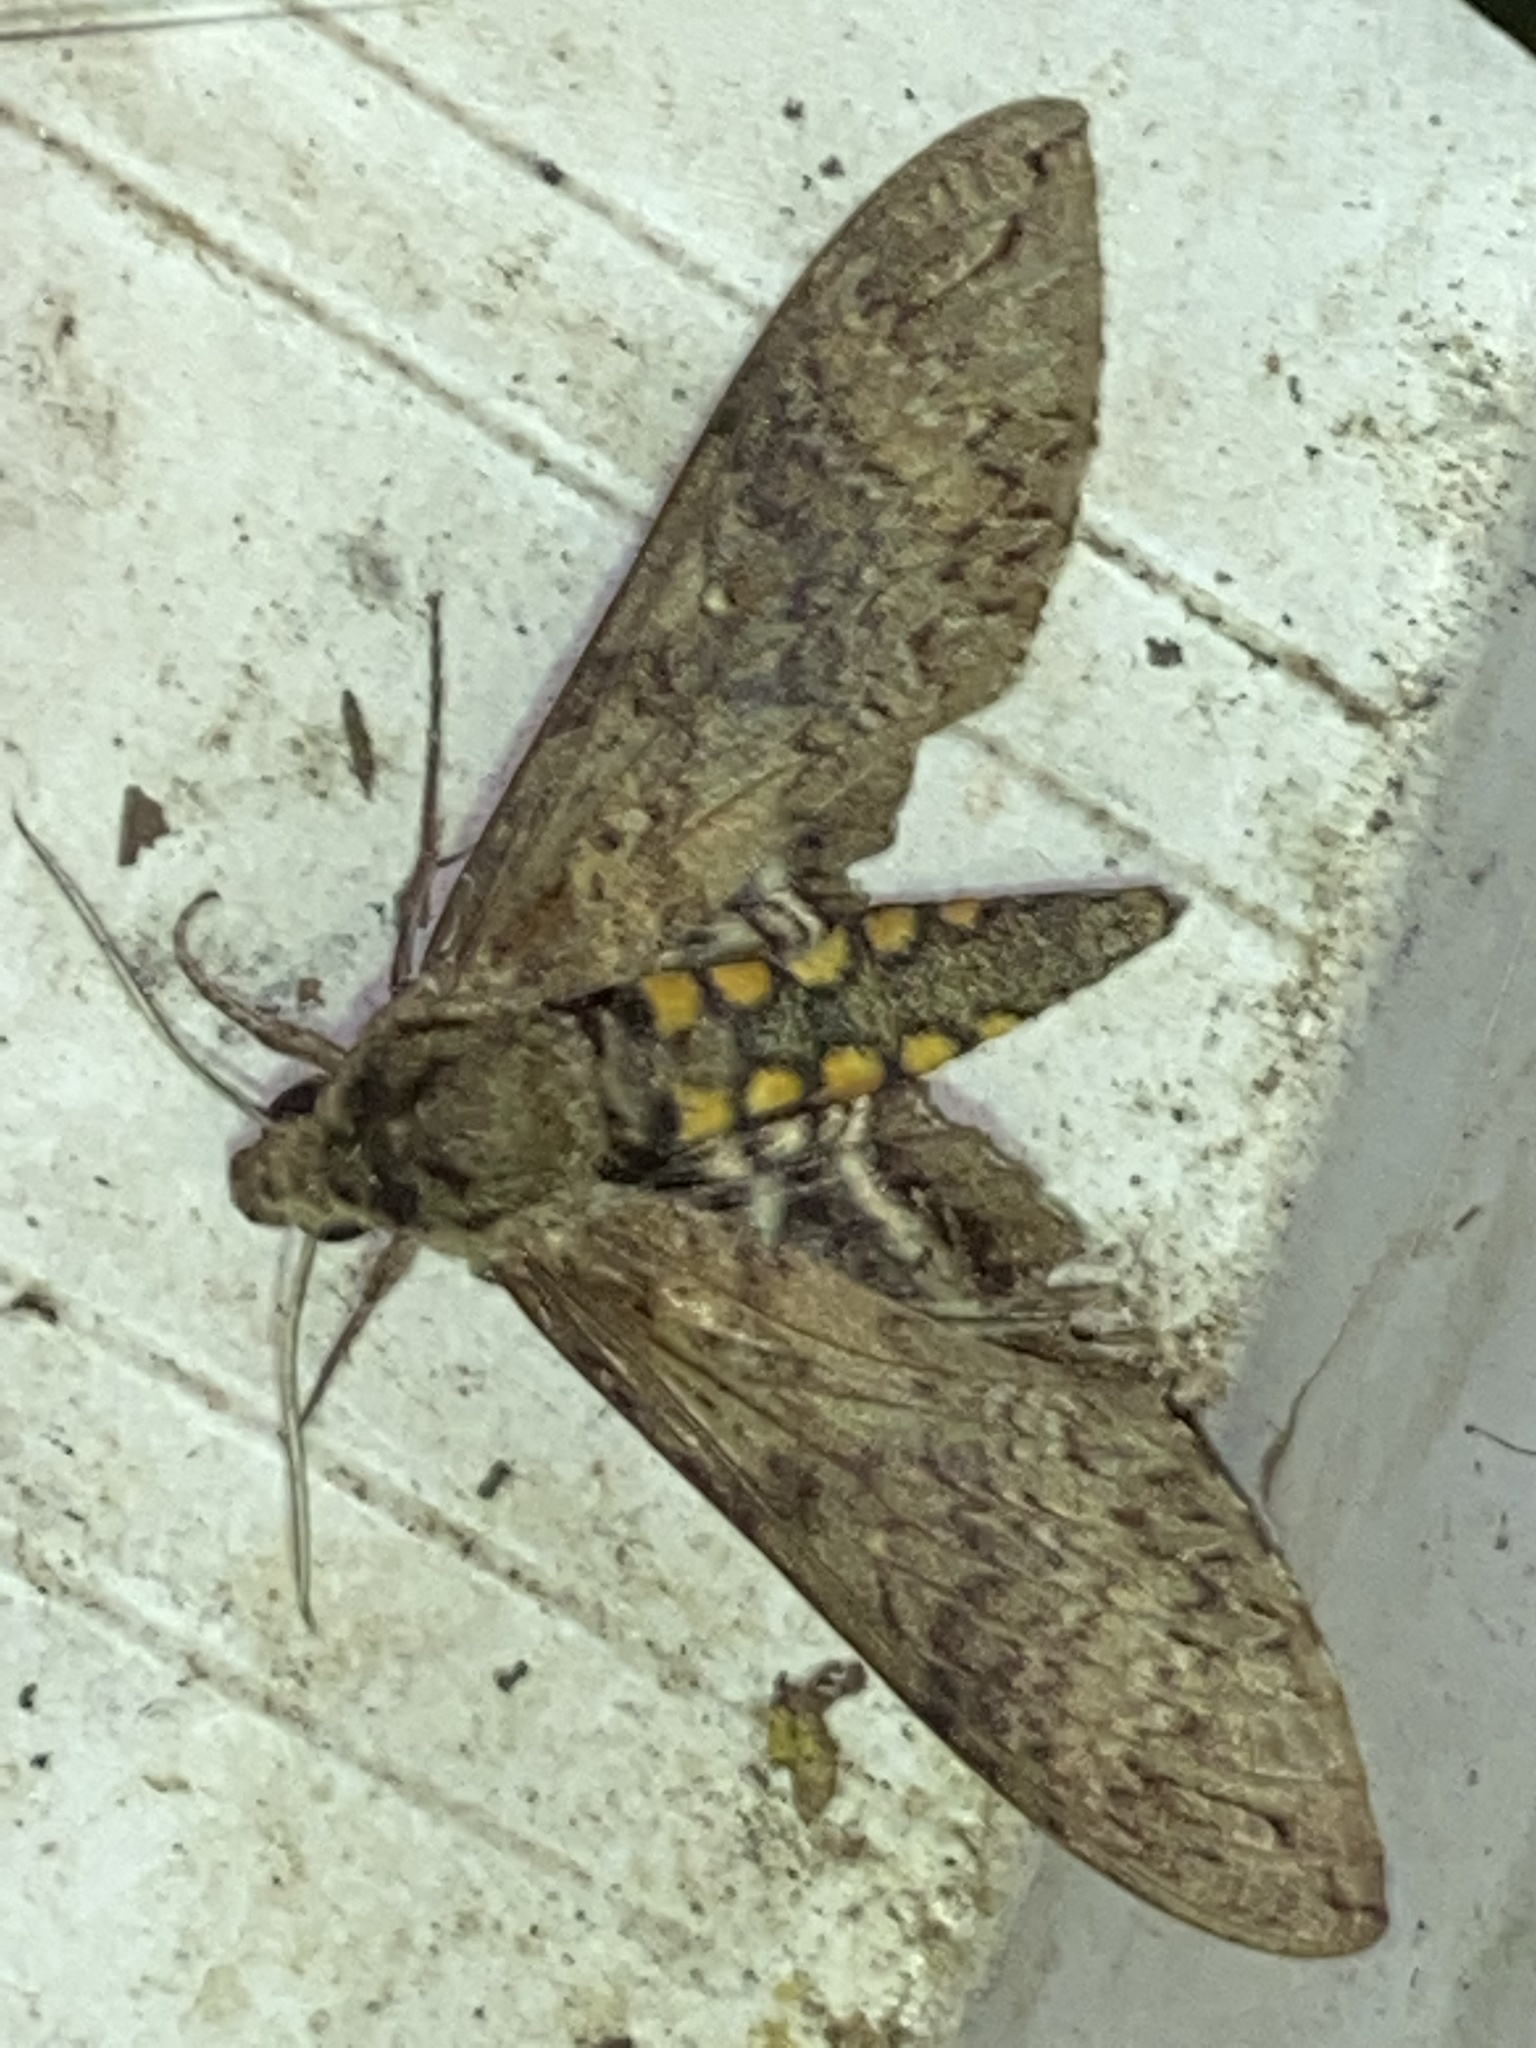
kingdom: Animalia
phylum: Arthropoda
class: Insecta
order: Lepidoptera
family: Sphingidae
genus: Manduca
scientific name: Manduca diffissa
